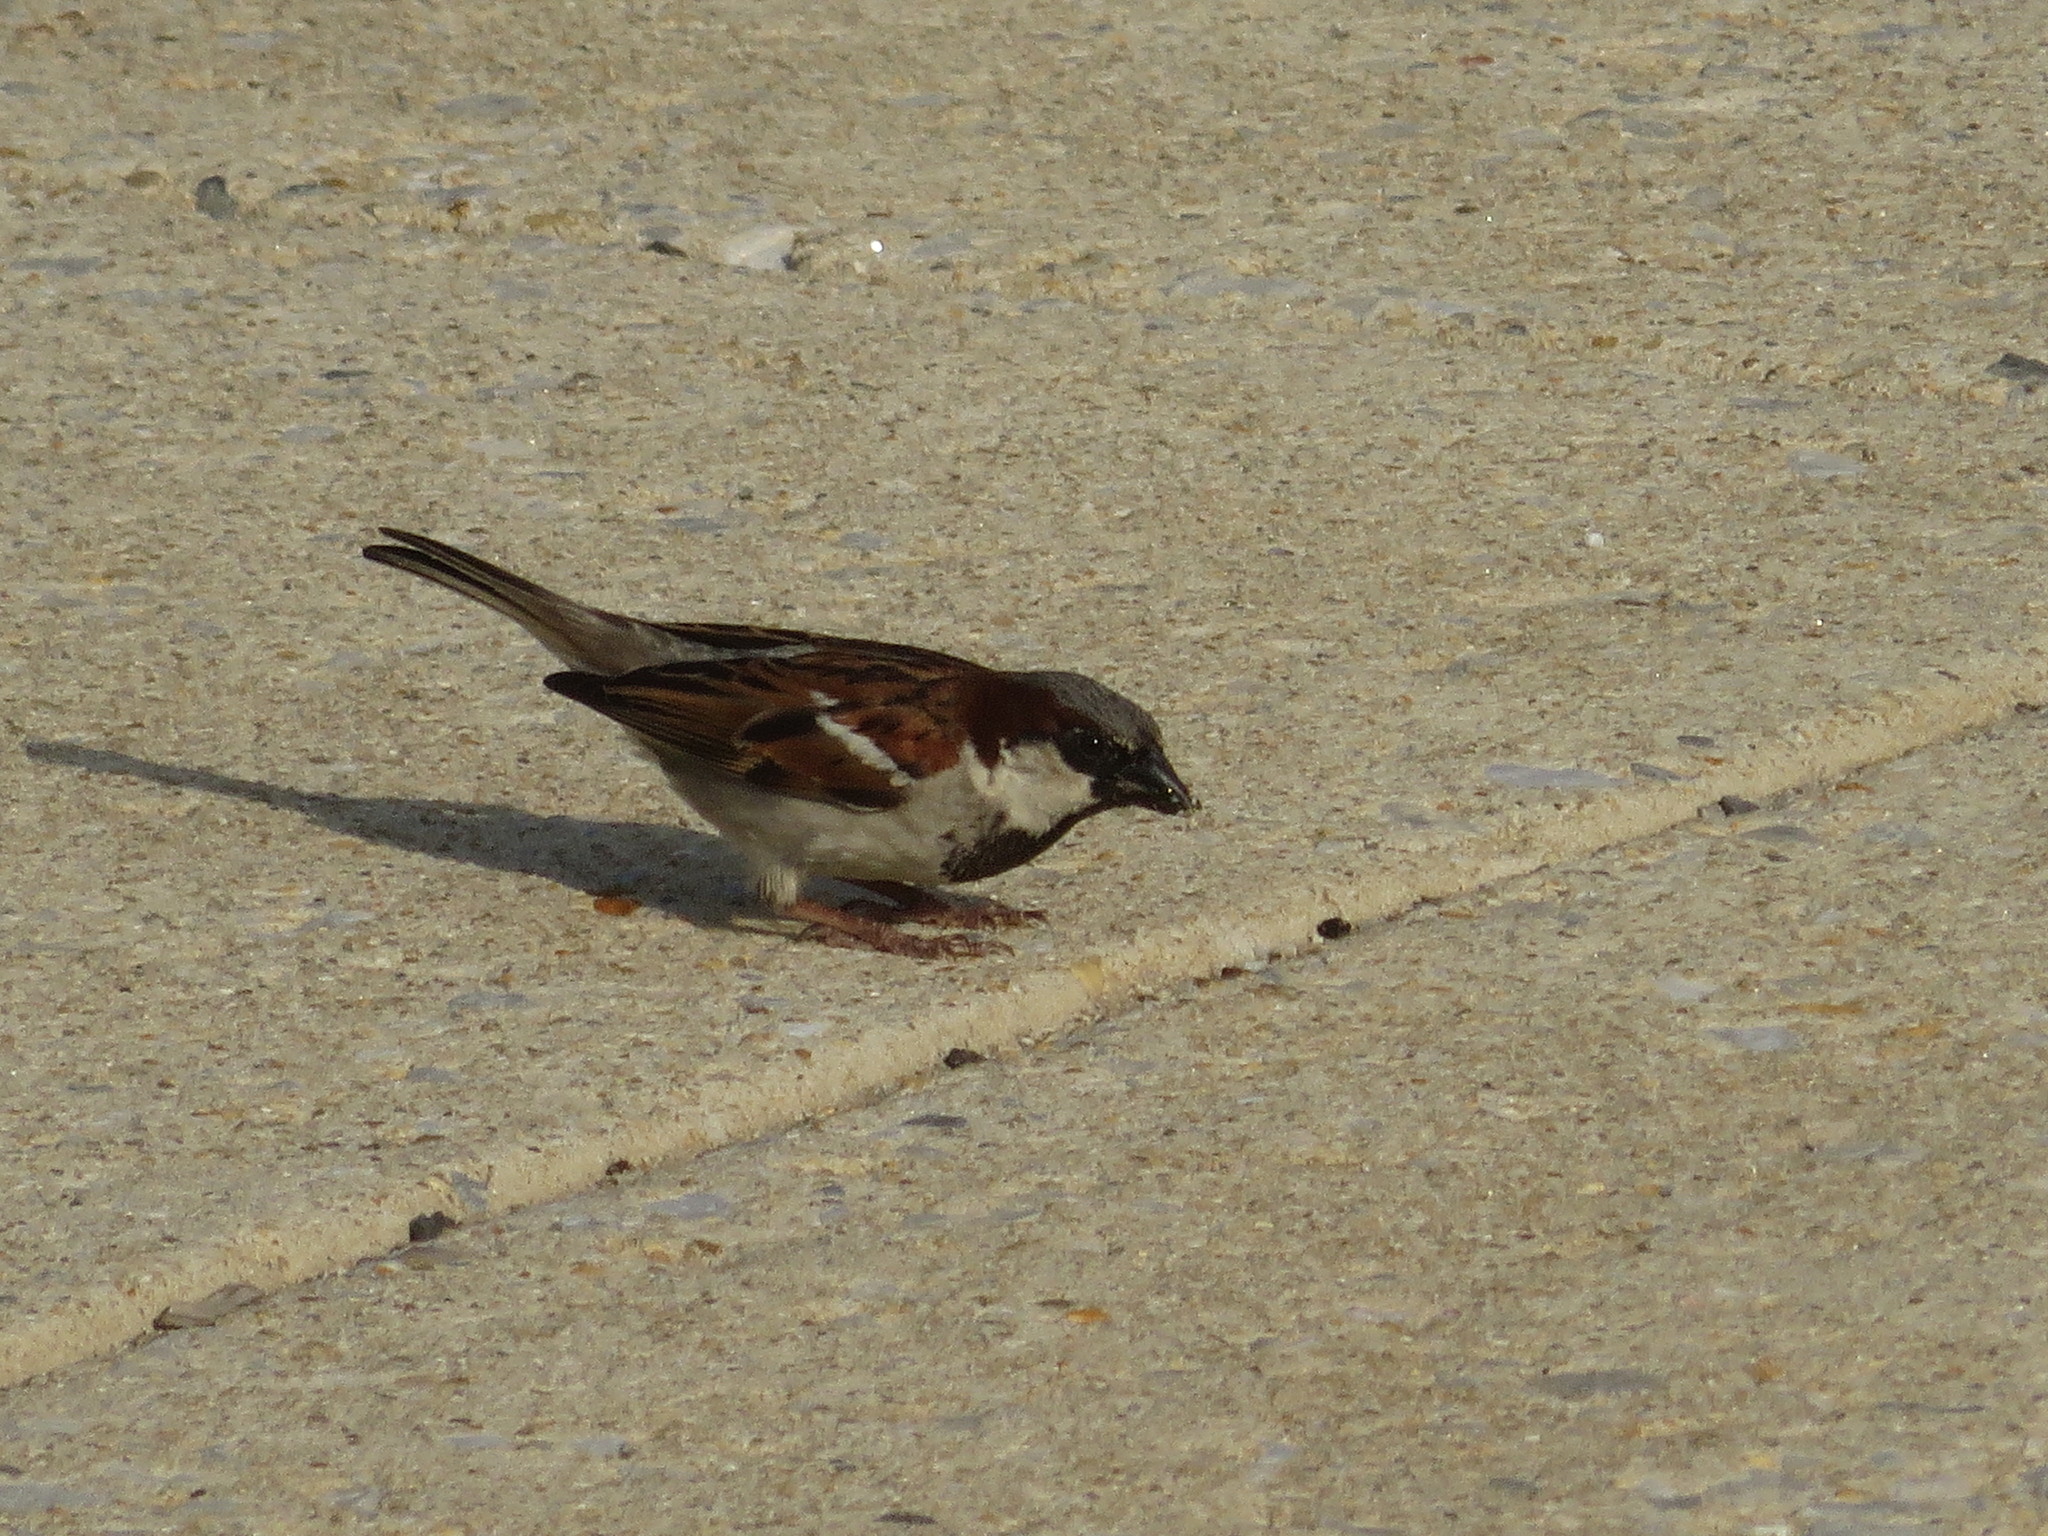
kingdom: Animalia
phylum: Chordata
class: Aves
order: Passeriformes
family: Passeridae
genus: Passer
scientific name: Passer domesticus
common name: House sparrow
